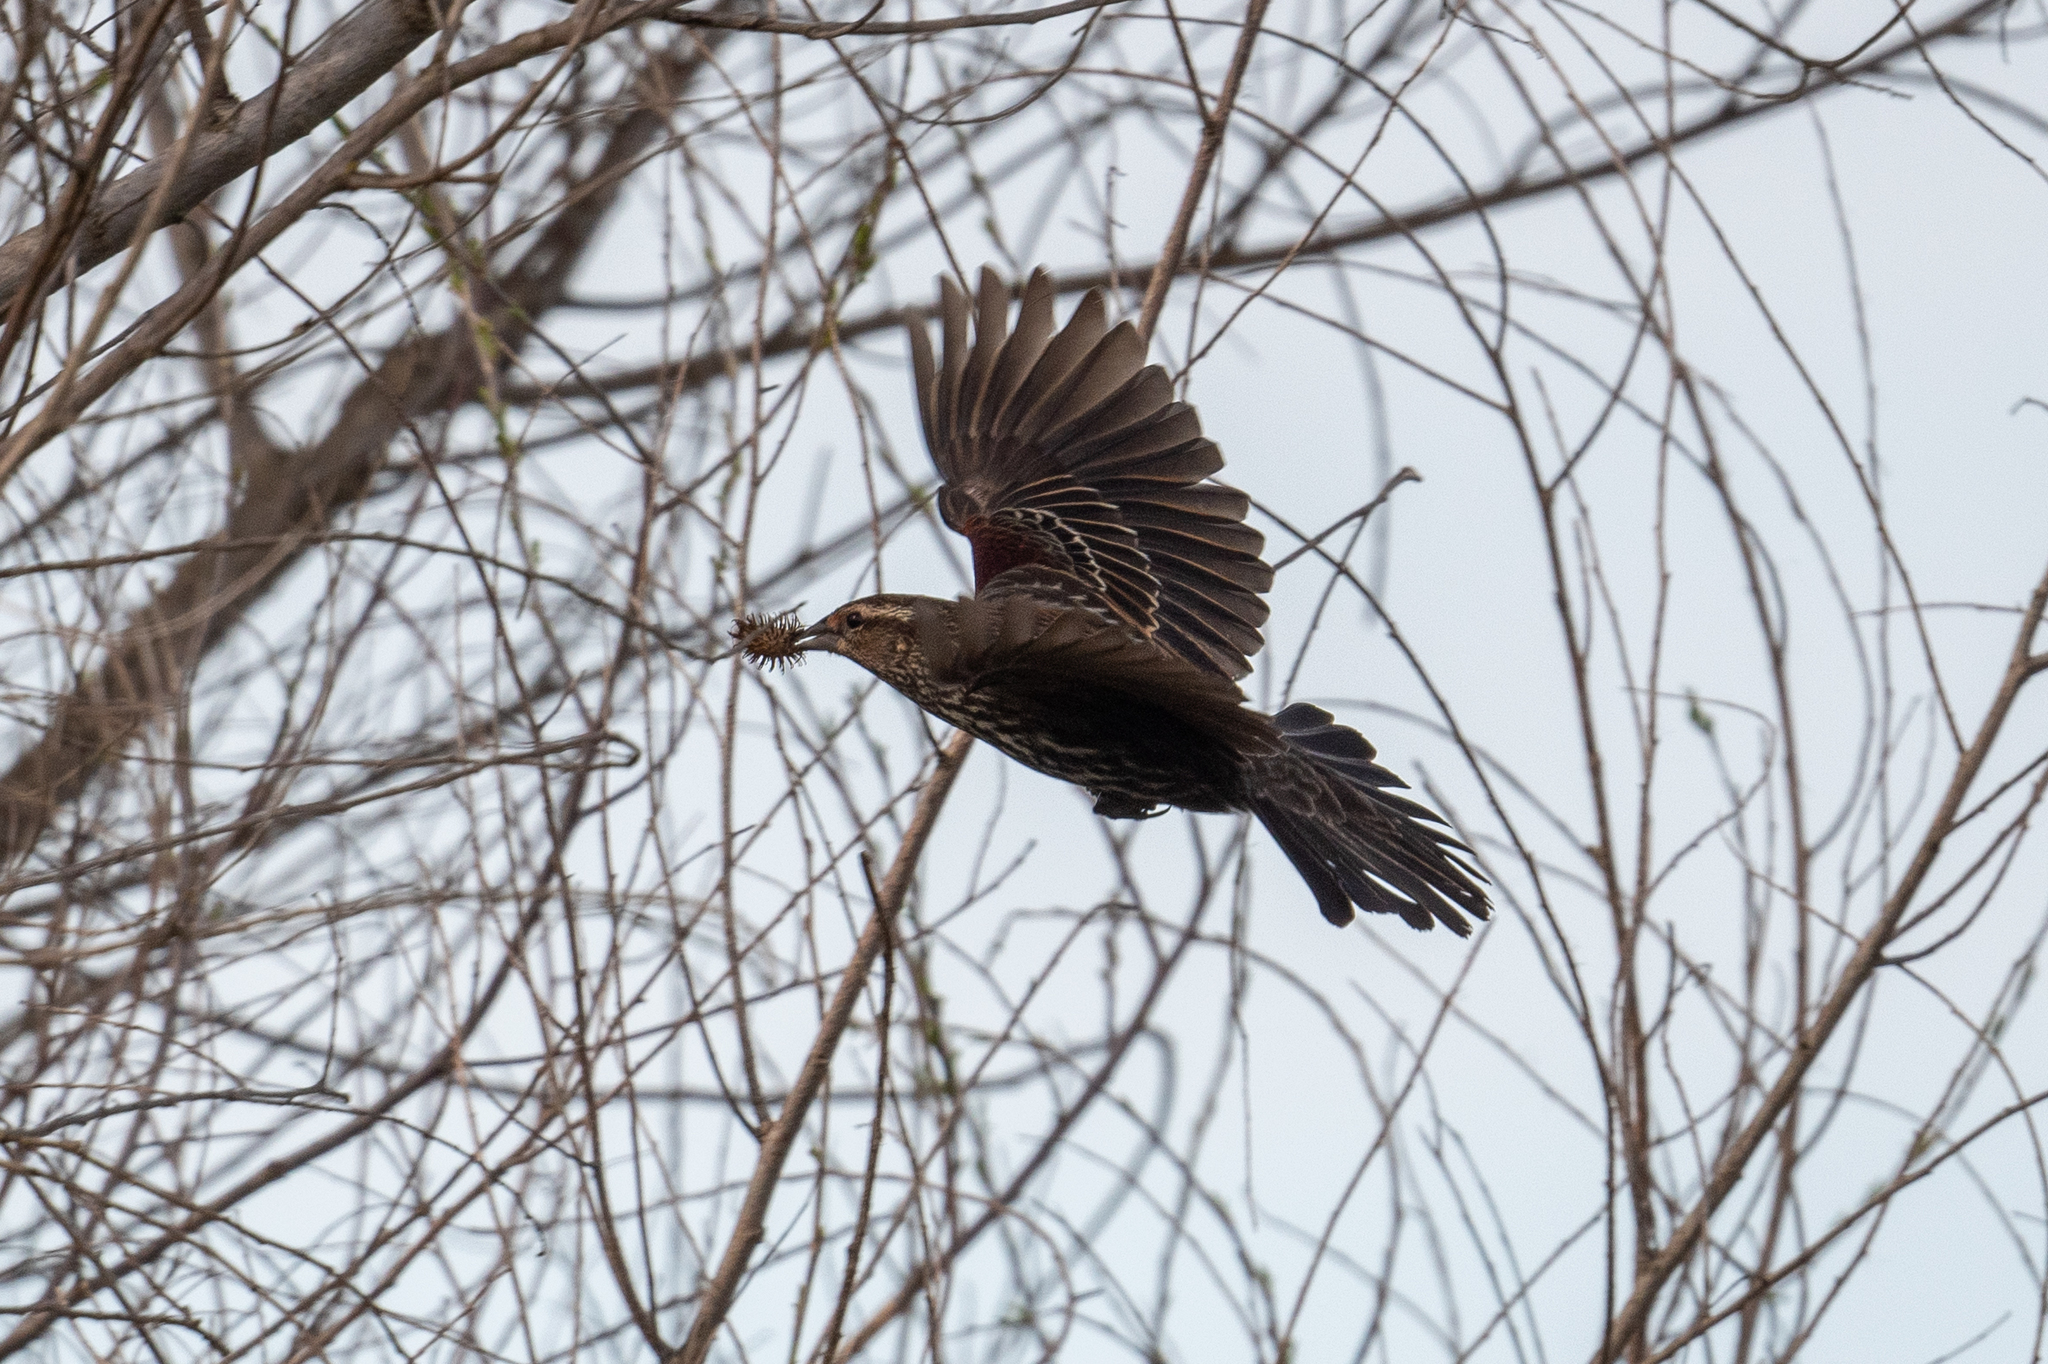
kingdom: Animalia
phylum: Chordata
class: Aves
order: Passeriformes
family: Icteridae
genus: Agelaius
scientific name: Agelaius phoeniceus
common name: Red-winged blackbird
